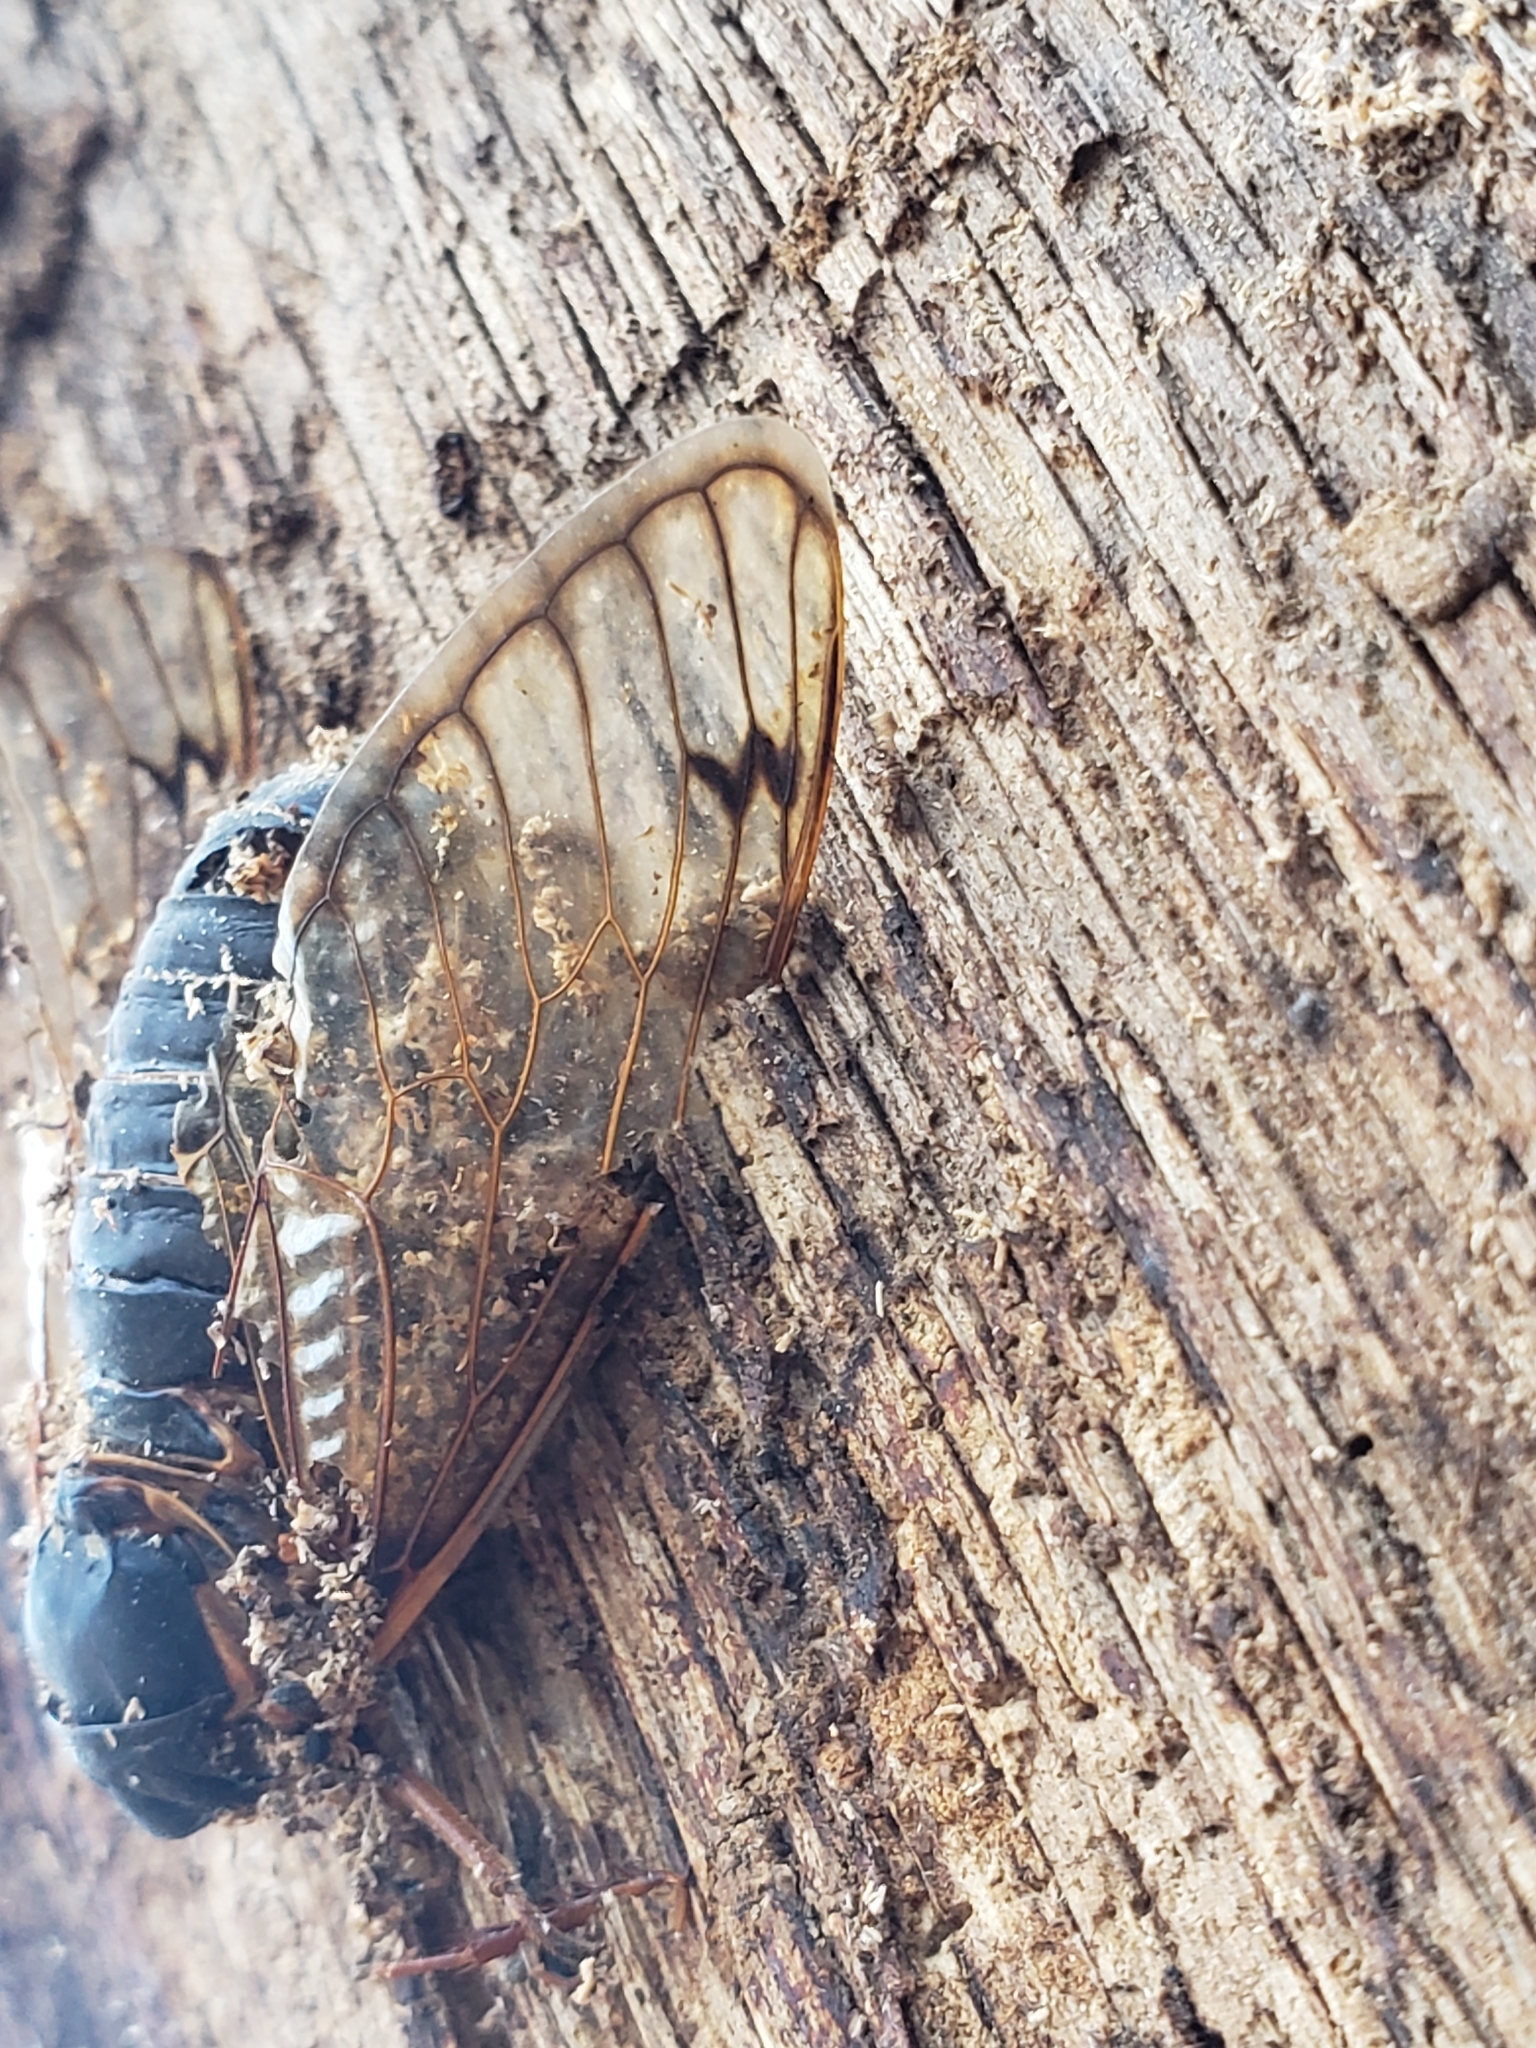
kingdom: Animalia
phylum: Arthropoda
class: Insecta
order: Hemiptera
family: Cicadidae
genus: Magicicada
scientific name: Magicicada
